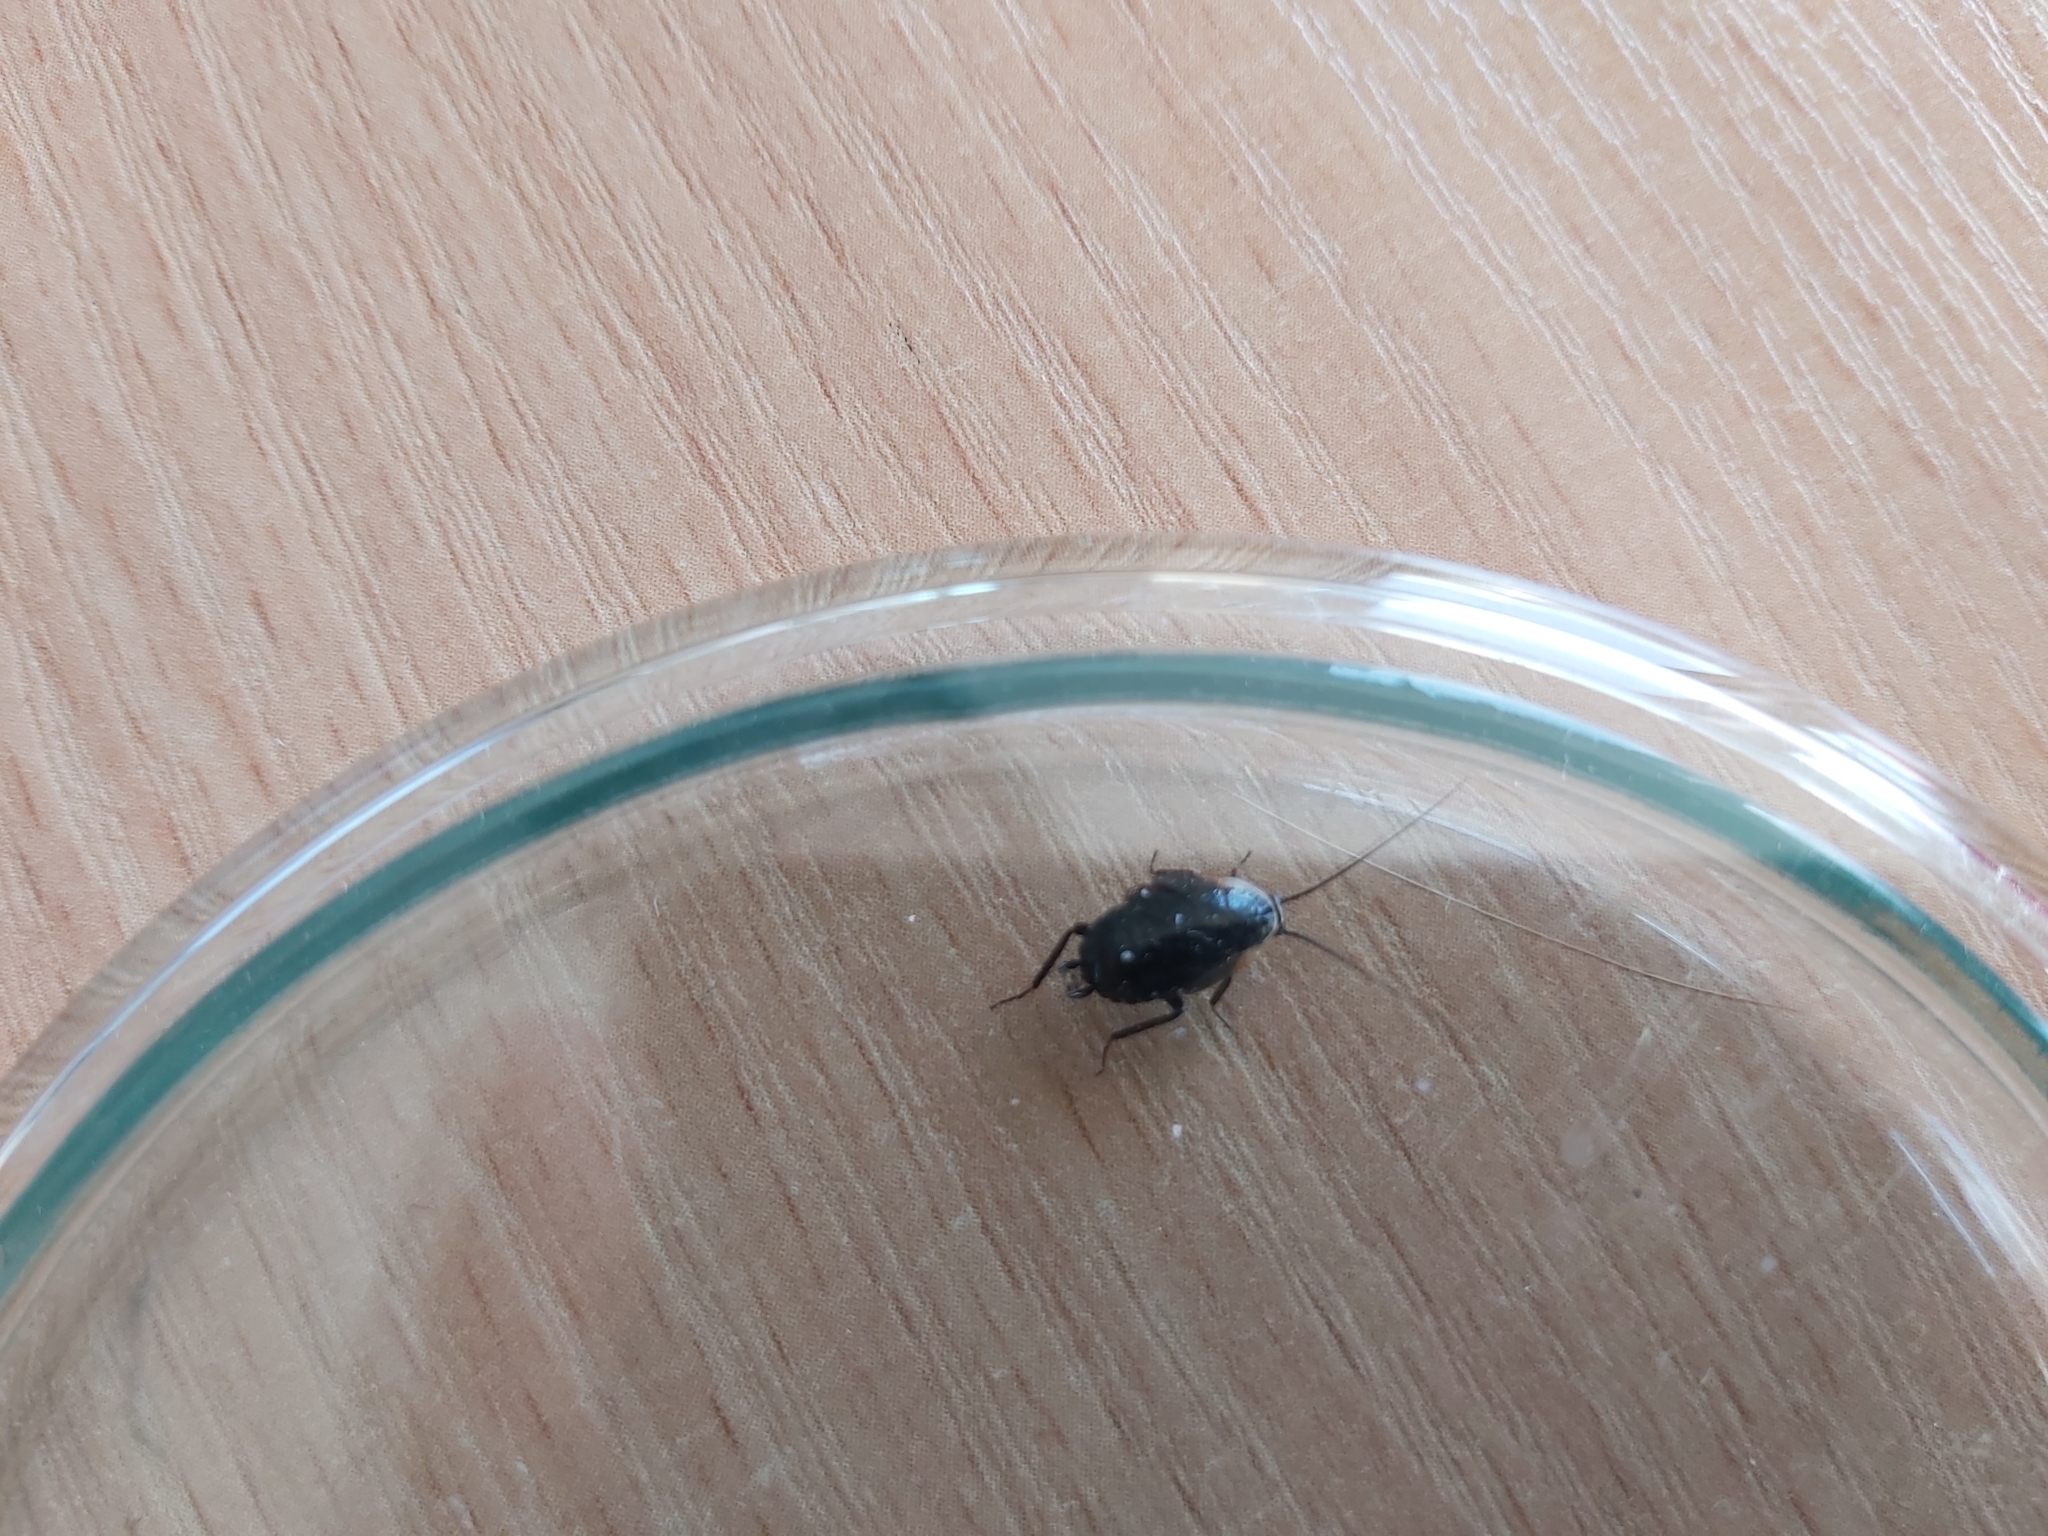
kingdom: Animalia
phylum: Arthropoda
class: Insecta
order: Blattodea
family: Ectobiidae
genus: Ectobius
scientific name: Ectobius sylvestris
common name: Forest cockroach
